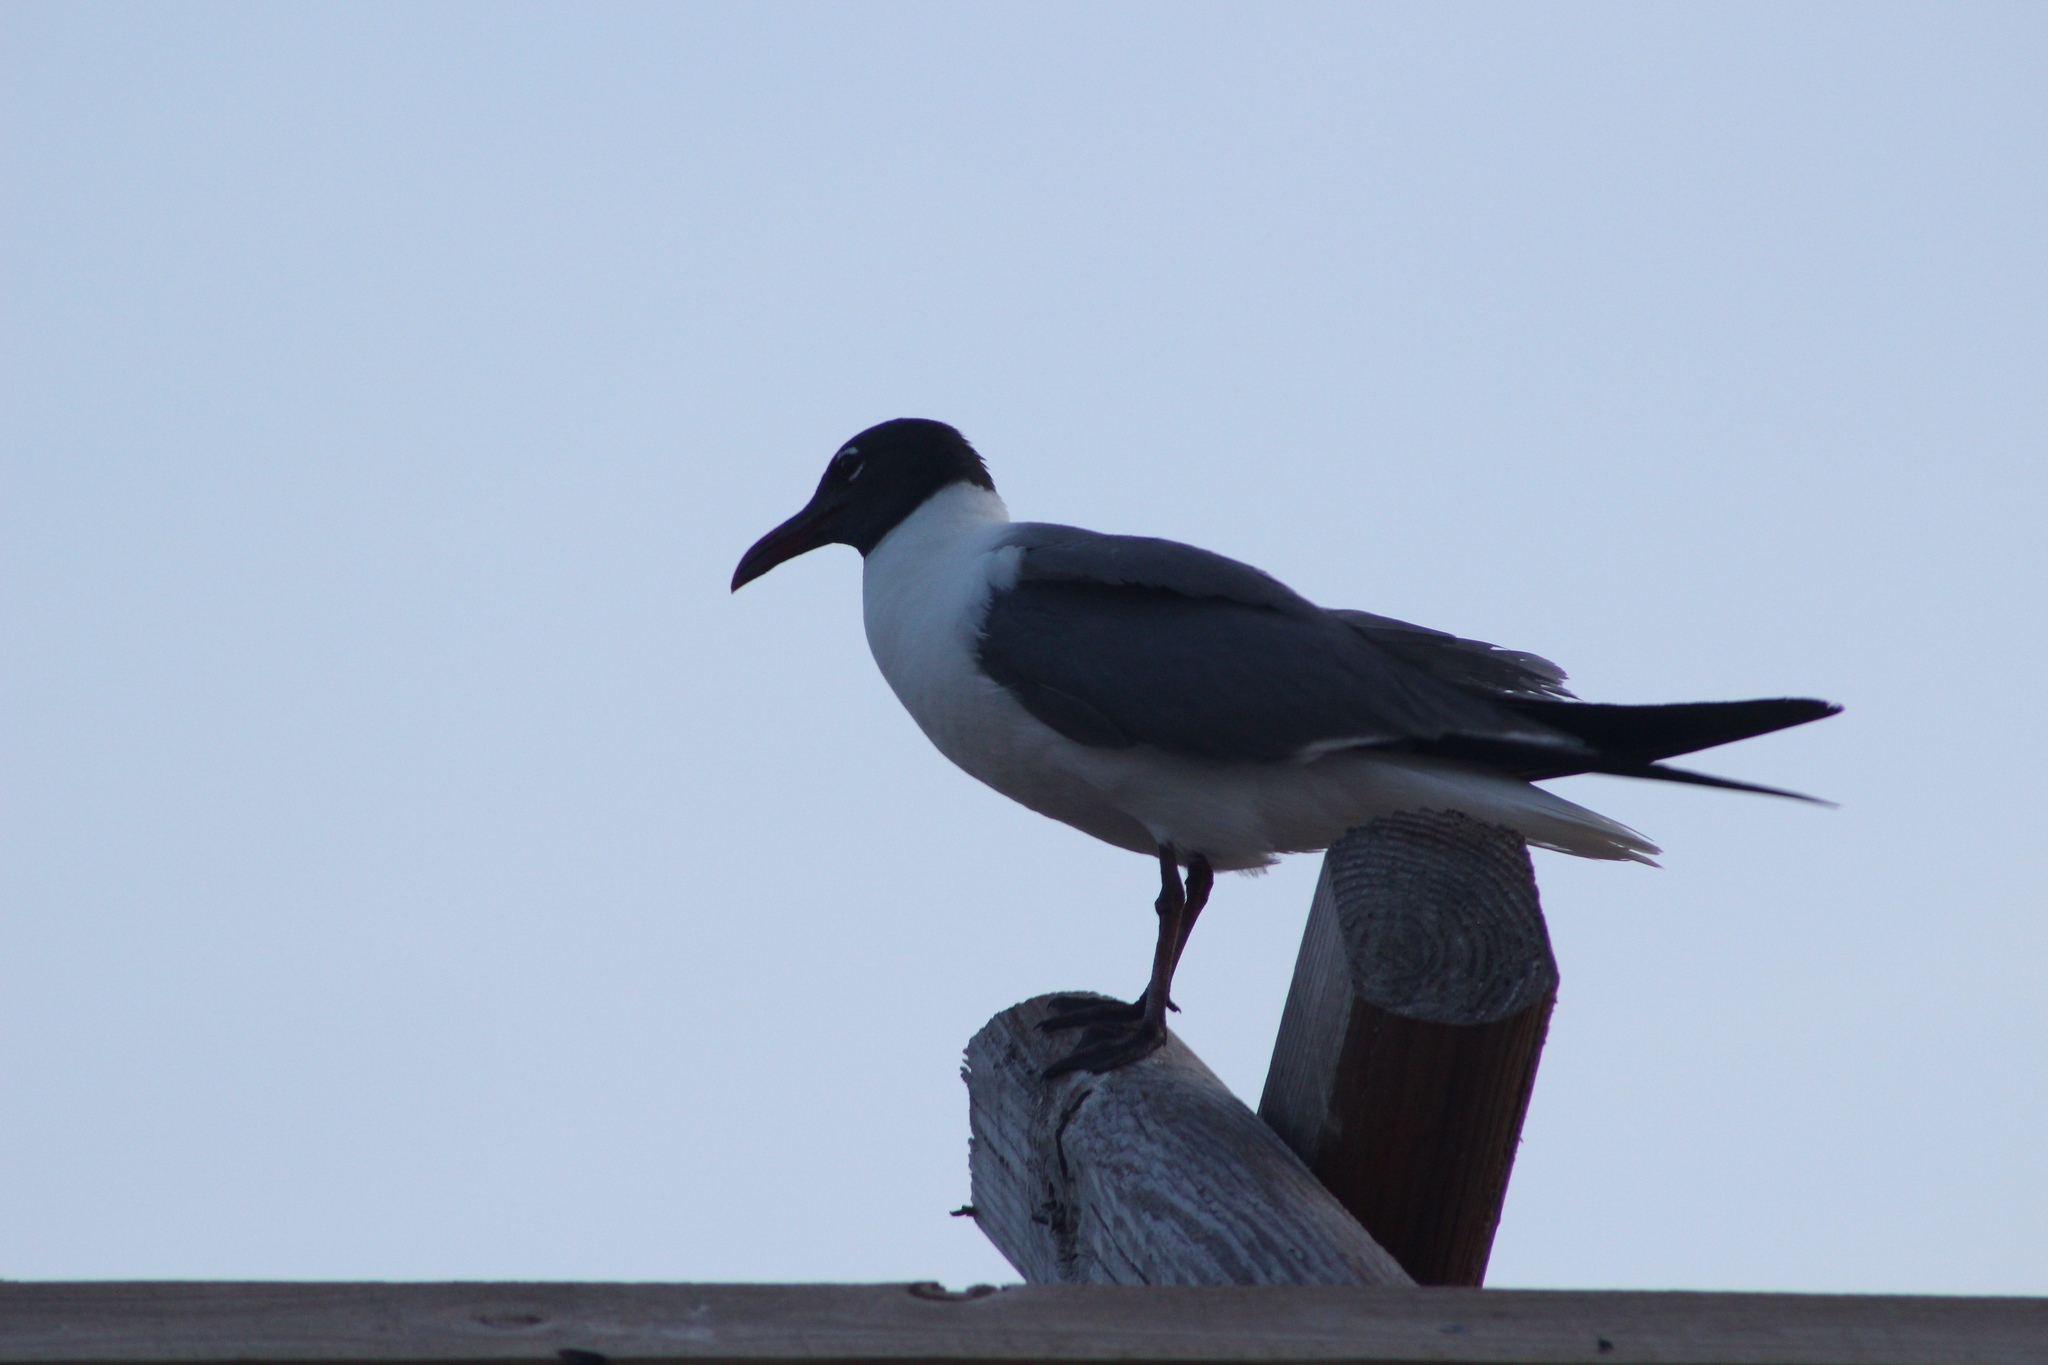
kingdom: Animalia
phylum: Chordata
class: Aves
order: Charadriiformes
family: Laridae
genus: Leucophaeus
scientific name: Leucophaeus atricilla
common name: Laughing gull
